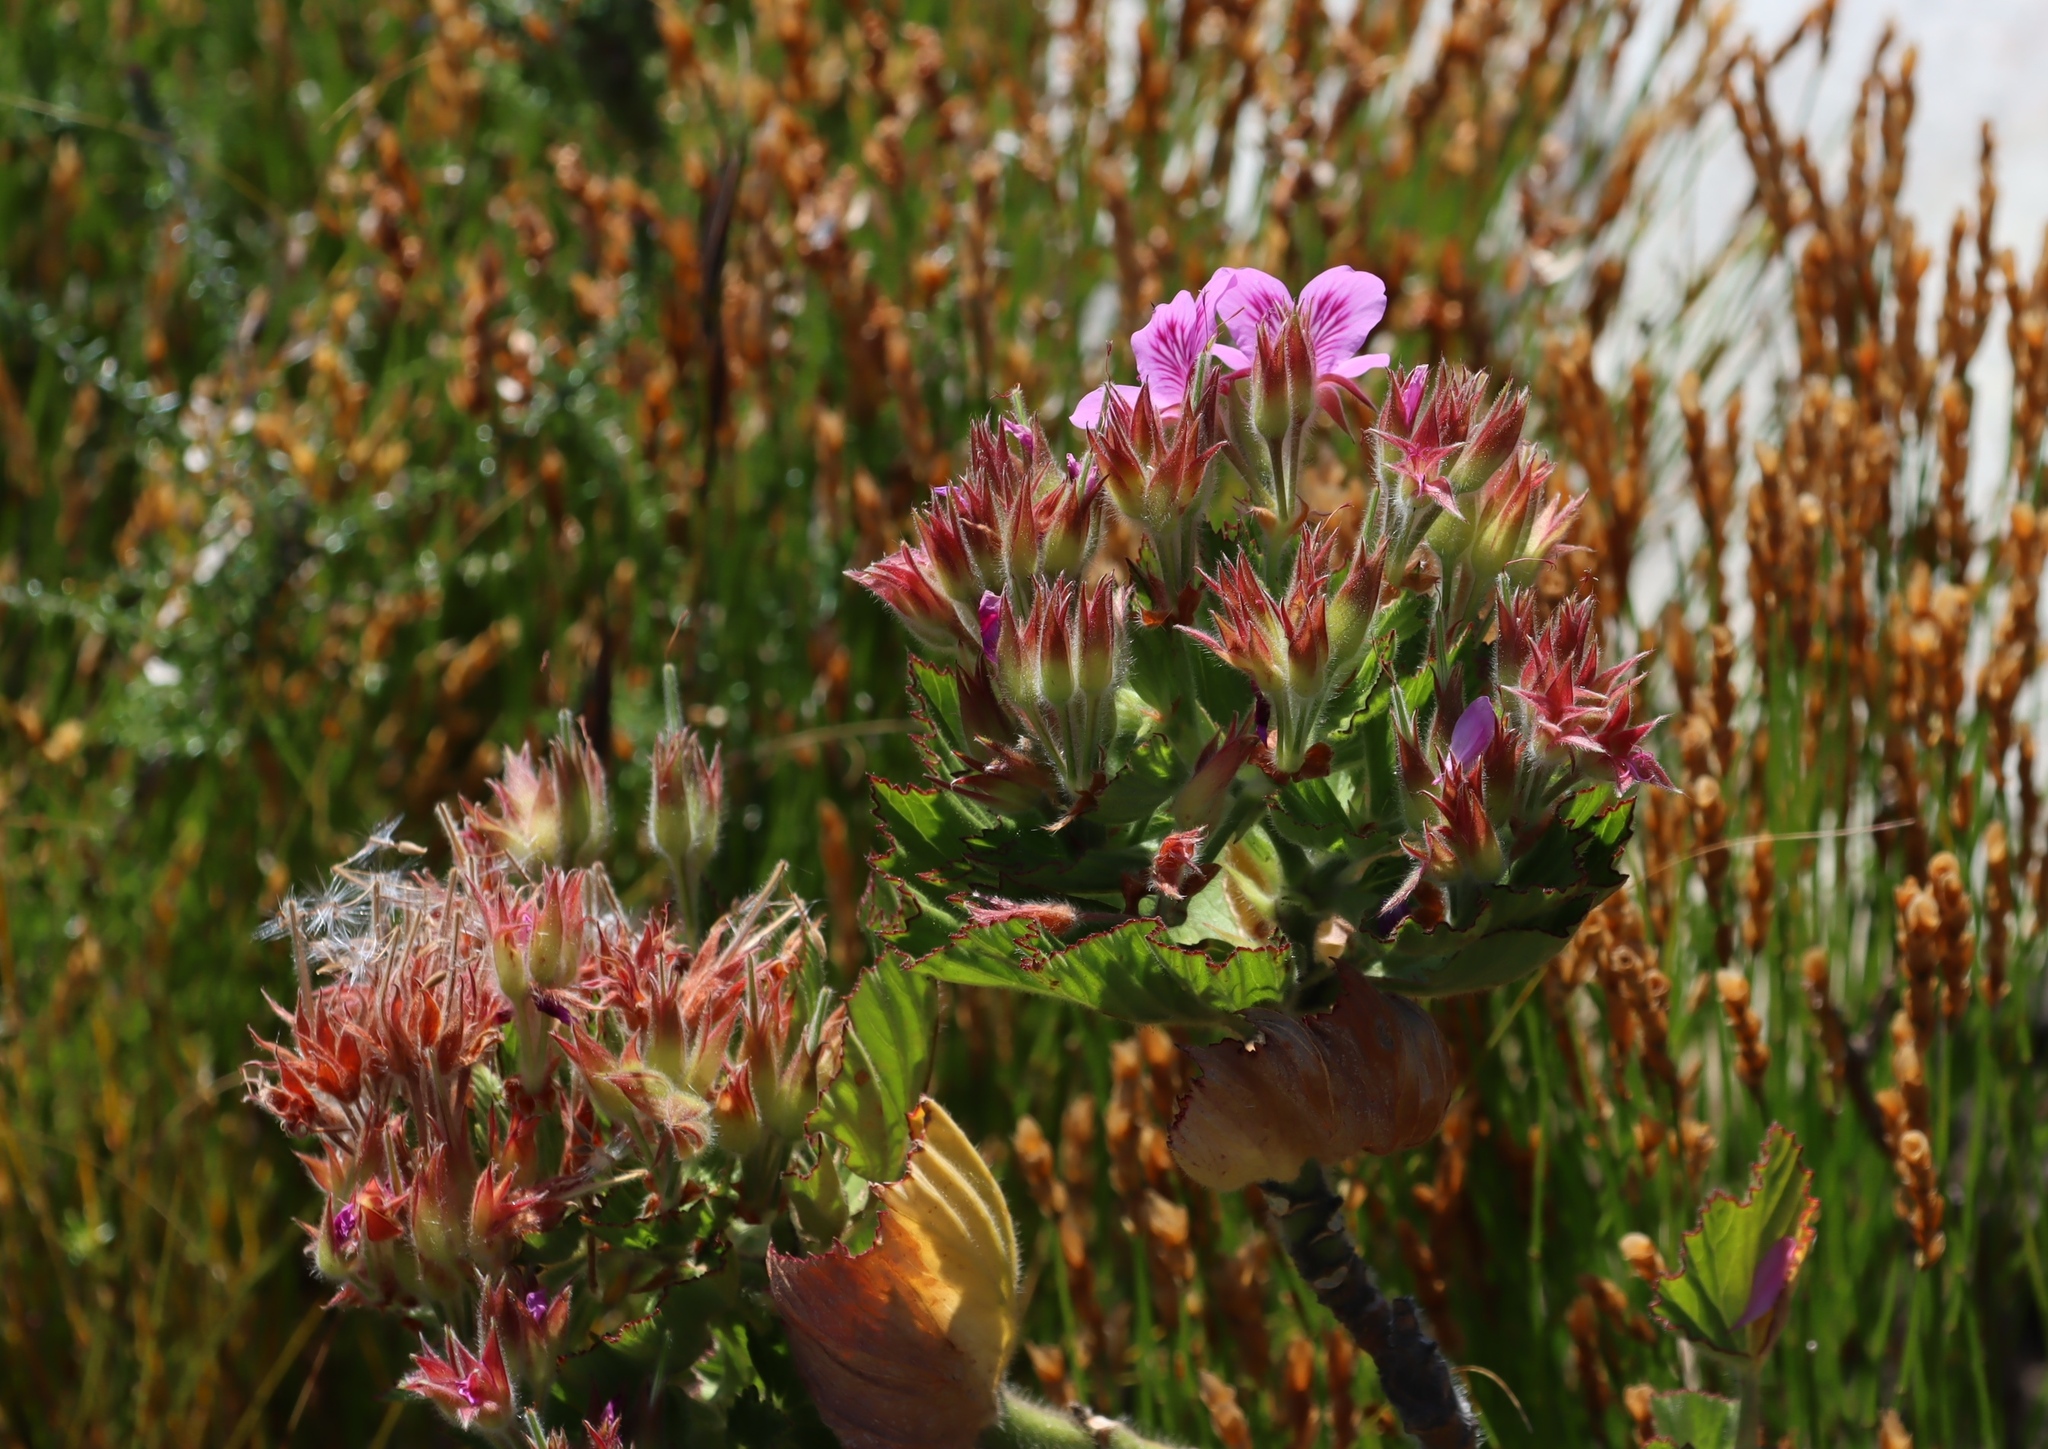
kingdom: Plantae
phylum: Tracheophyta
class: Magnoliopsida
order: Geraniales
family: Geraniaceae
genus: Pelargonium
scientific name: Pelargonium cucullatum
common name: Tree pelargonium
